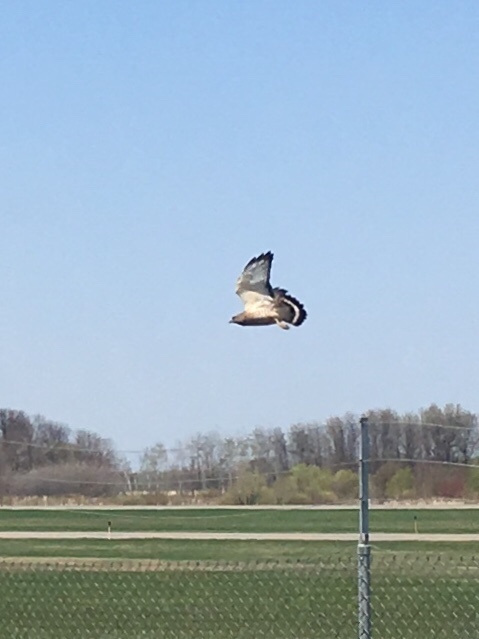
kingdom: Animalia
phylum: Chordata
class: Aves
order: Accipitriformes
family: Accipitridae
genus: Buteo
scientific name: Buteo platypterus
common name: Broad-winged hawk
